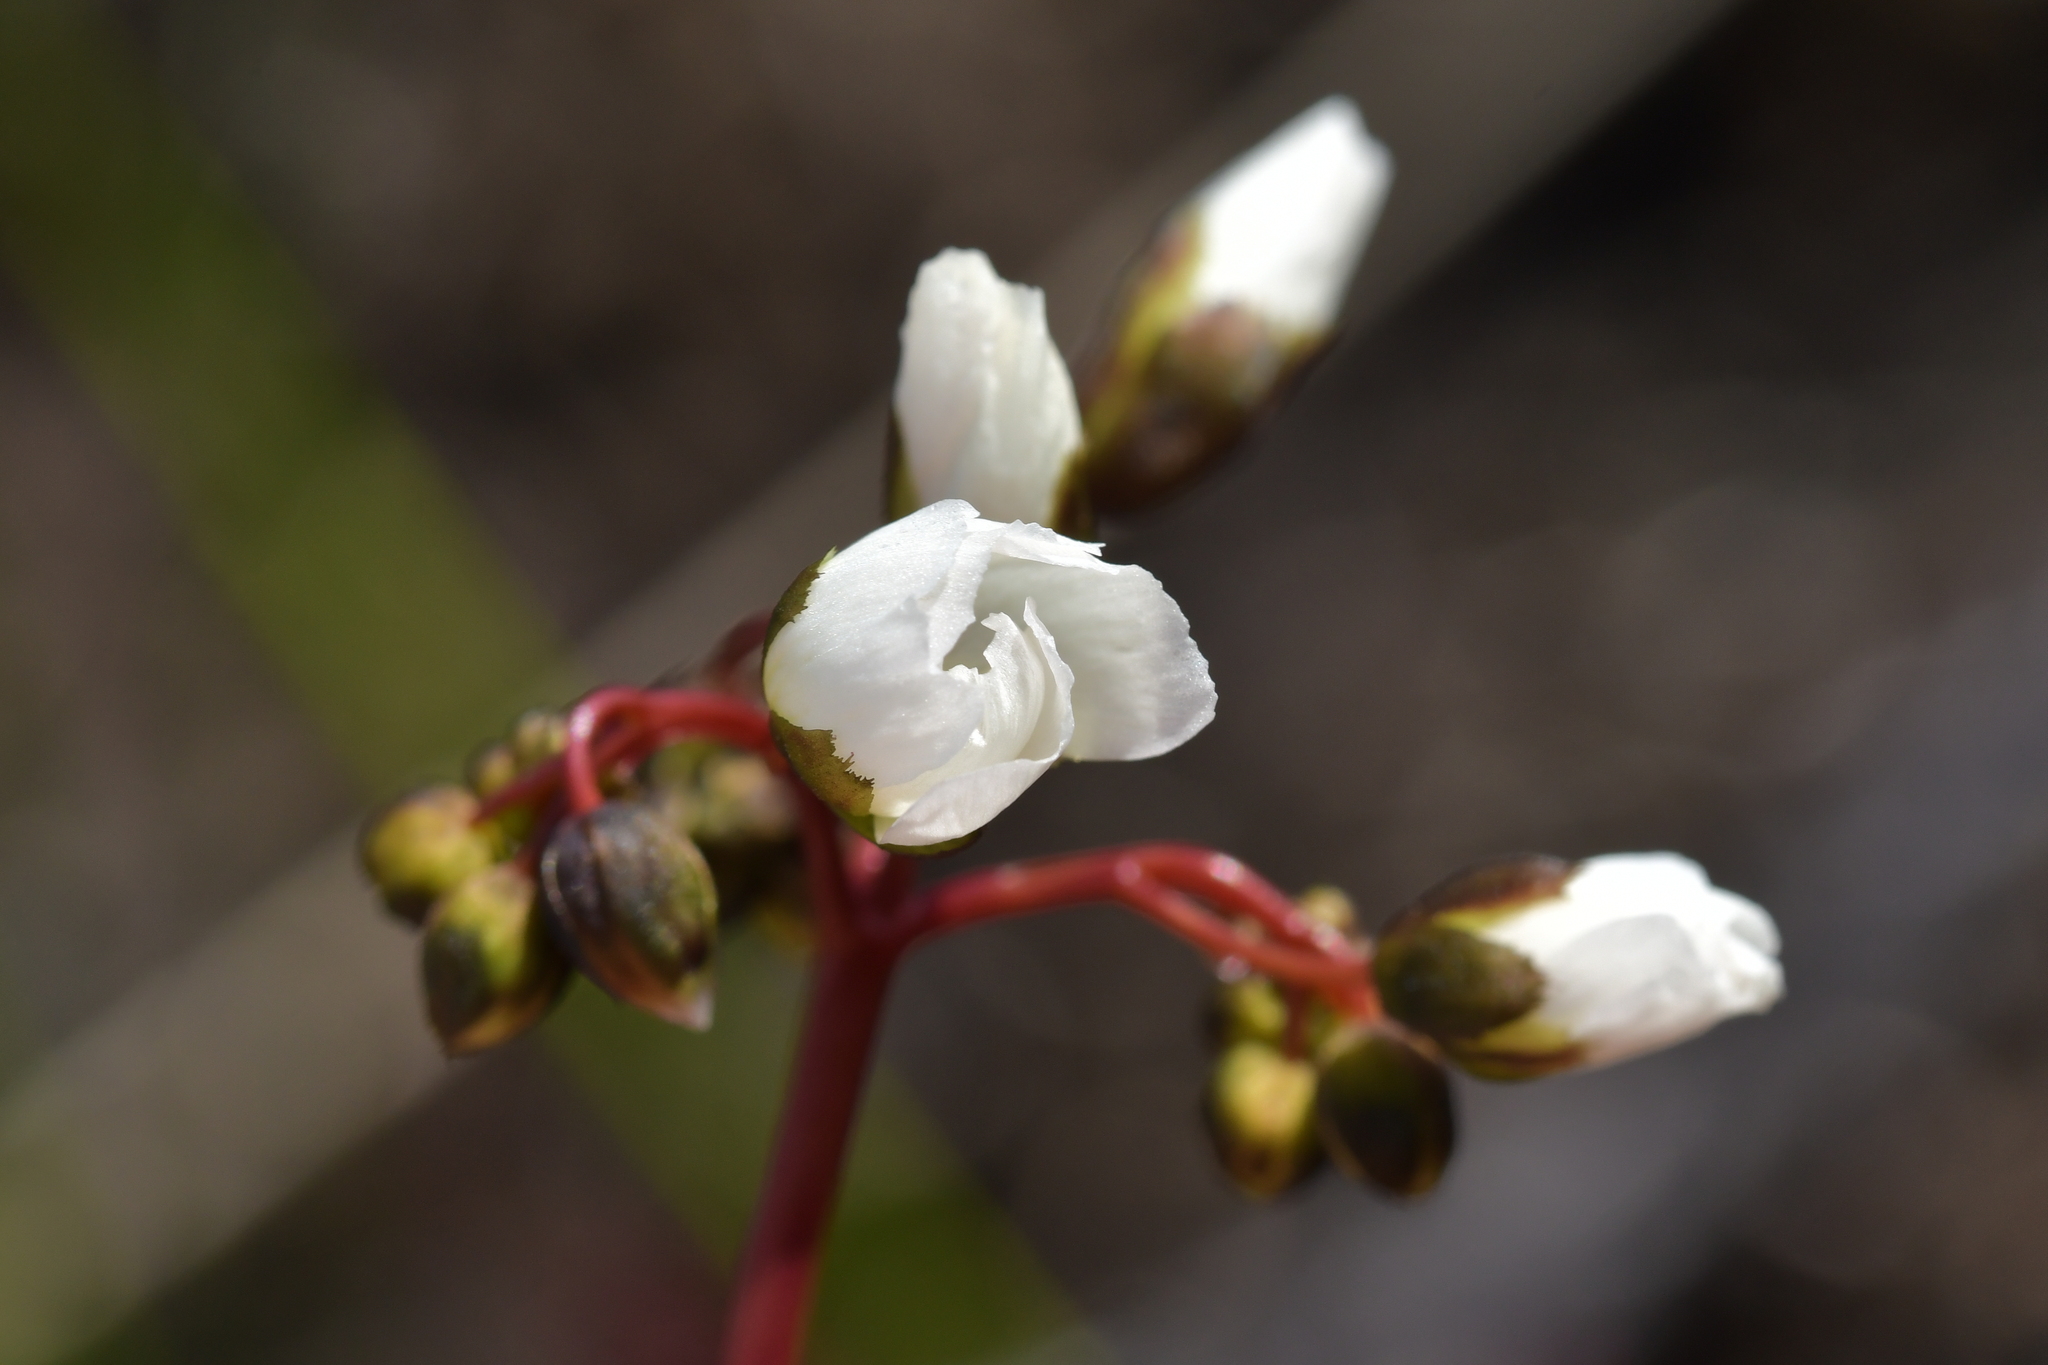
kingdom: Plantae
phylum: Tracheophyta
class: Magnoliopsida
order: Caryophyllales
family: Droseraceae
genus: Drosera
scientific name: Drosera binata
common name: Forked sundew
